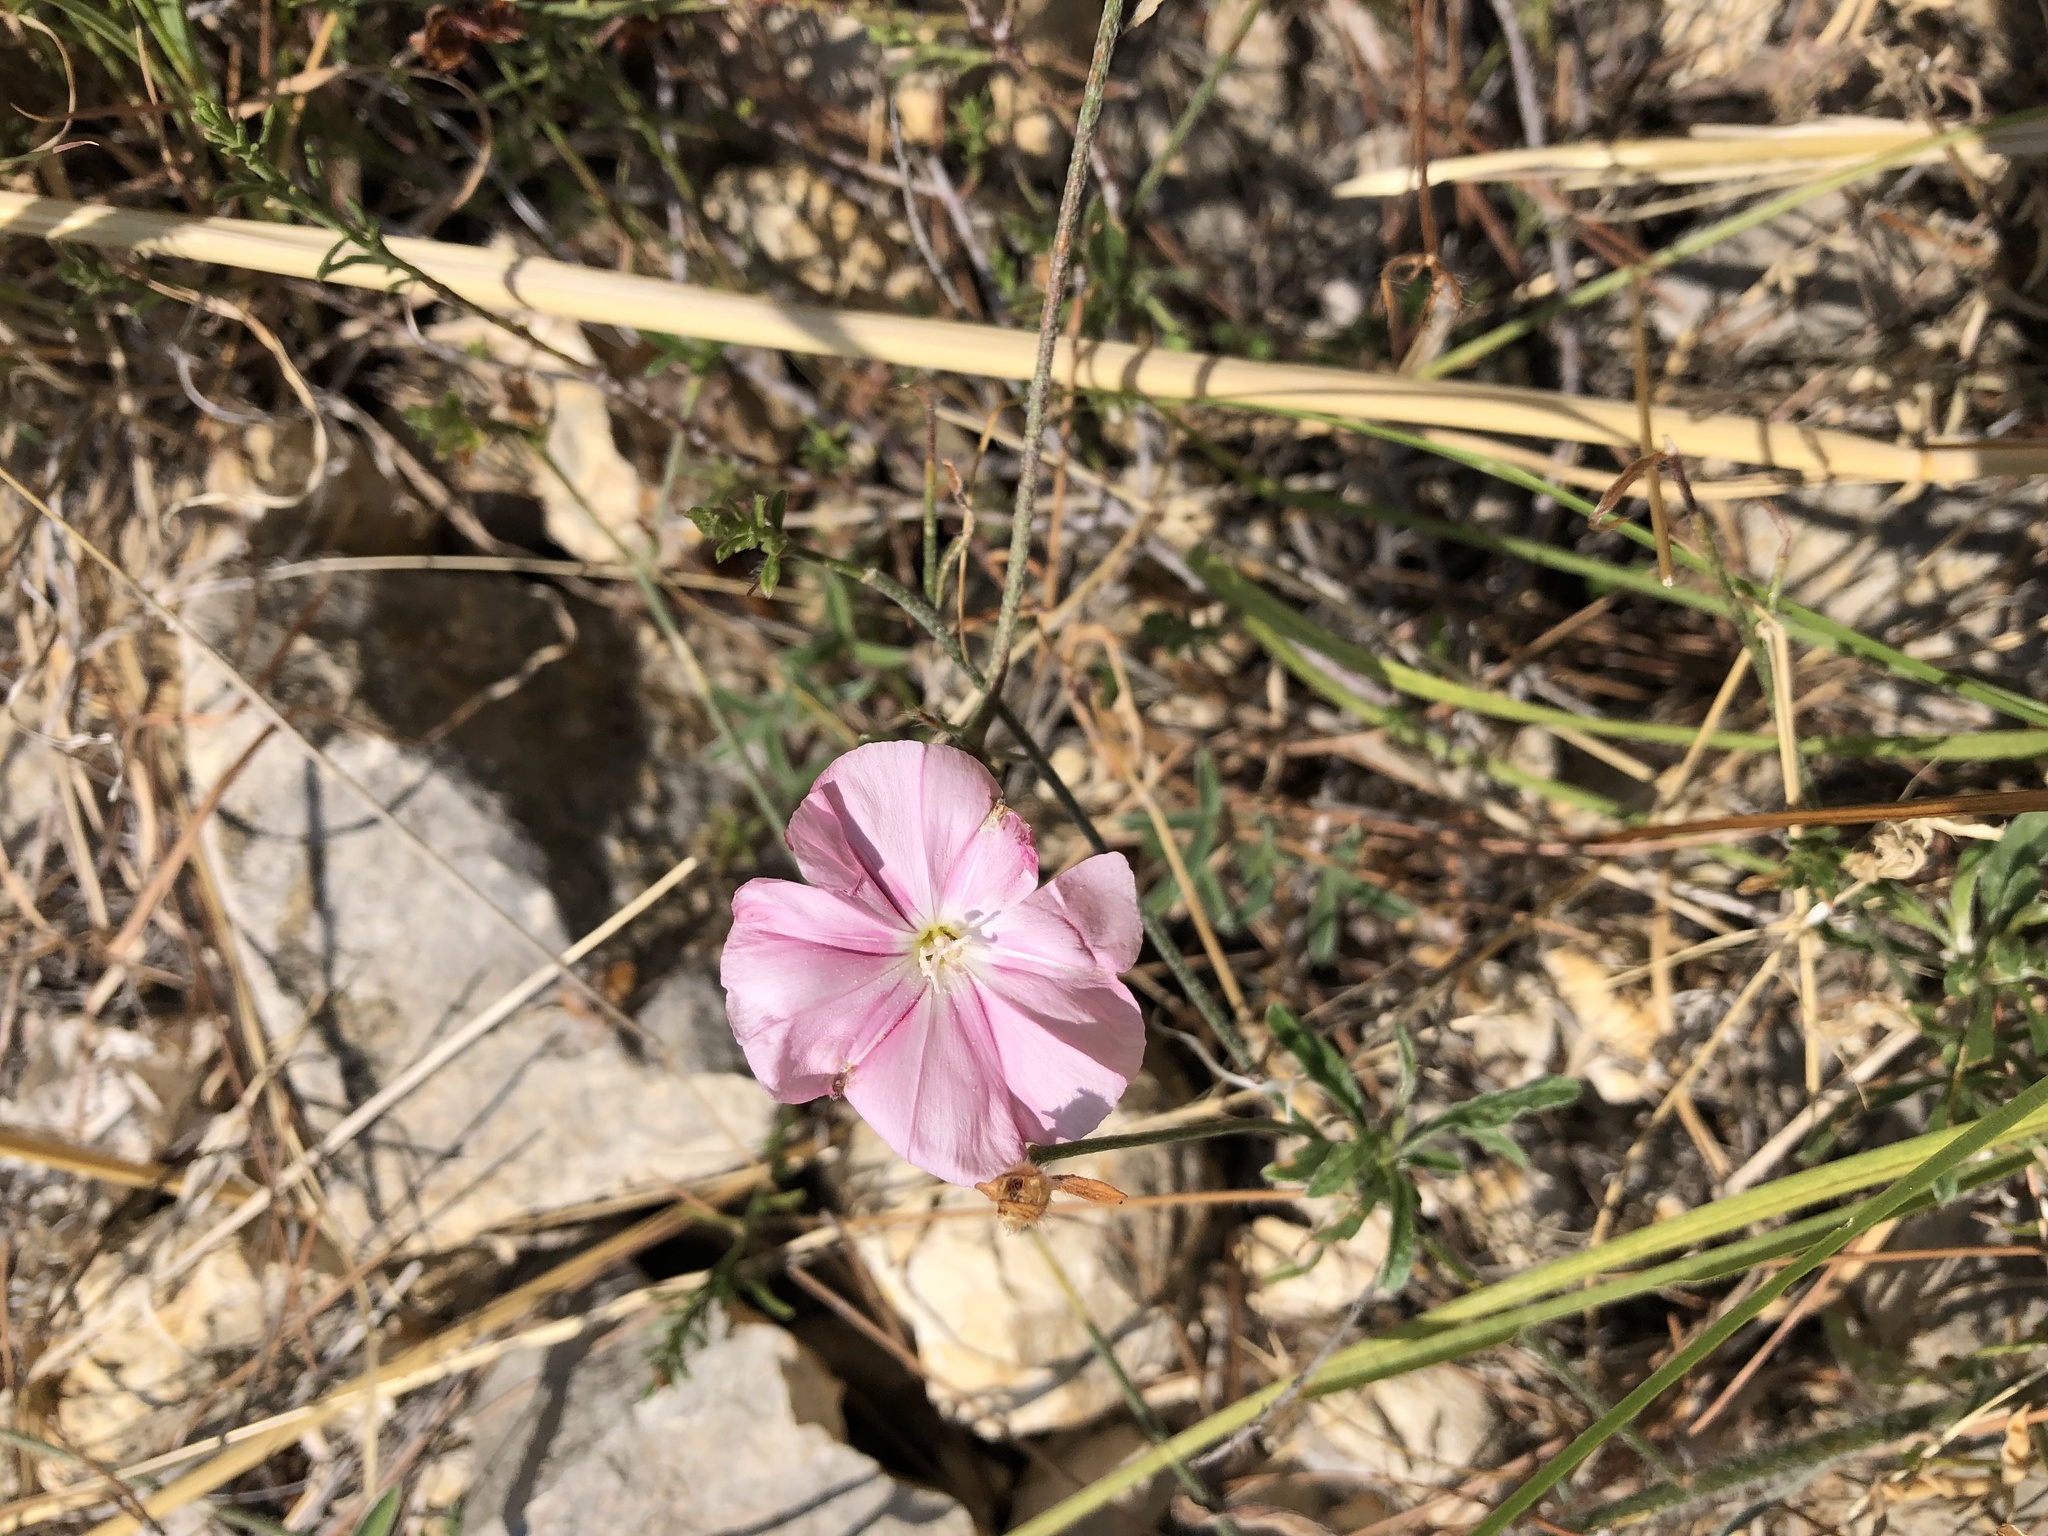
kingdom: Plantae
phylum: Tracheophyta
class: Magnoliopsida
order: Solanales
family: Convolvulaceae
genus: Convolvulus
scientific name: Convolvulus cantabrica
